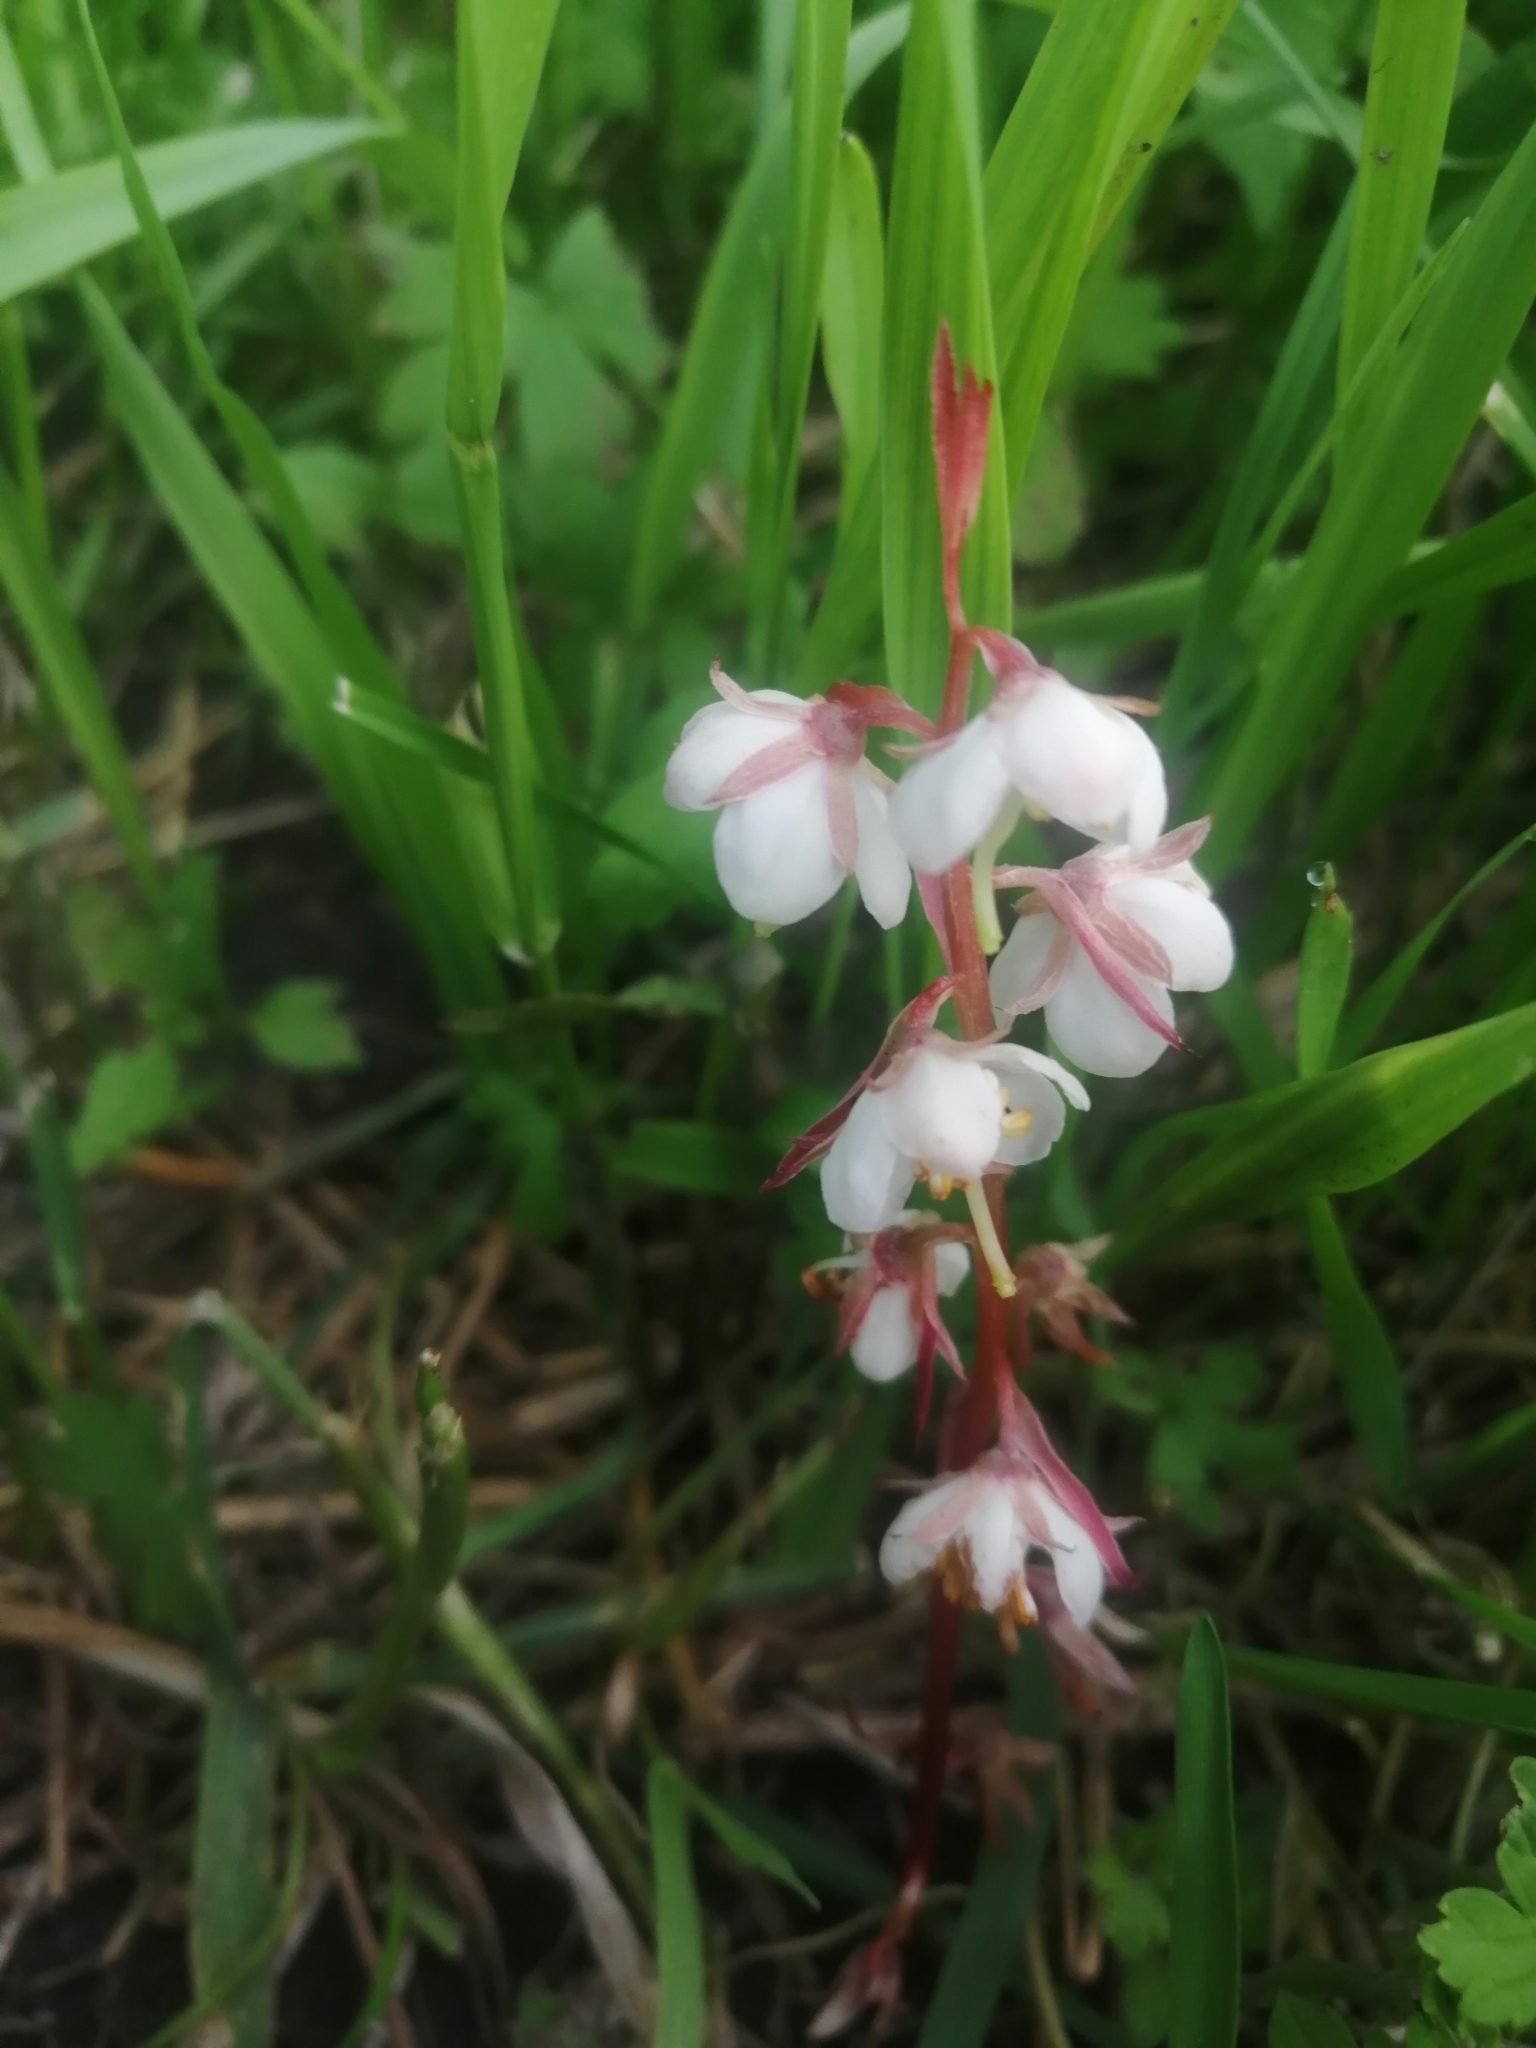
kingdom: Plantae
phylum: Tracheophyta
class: Magnoliopsida
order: Ericales
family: Ericaceae
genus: Pyrola
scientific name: Pyrola rotundifolia
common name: Round-leaved wintergreen
